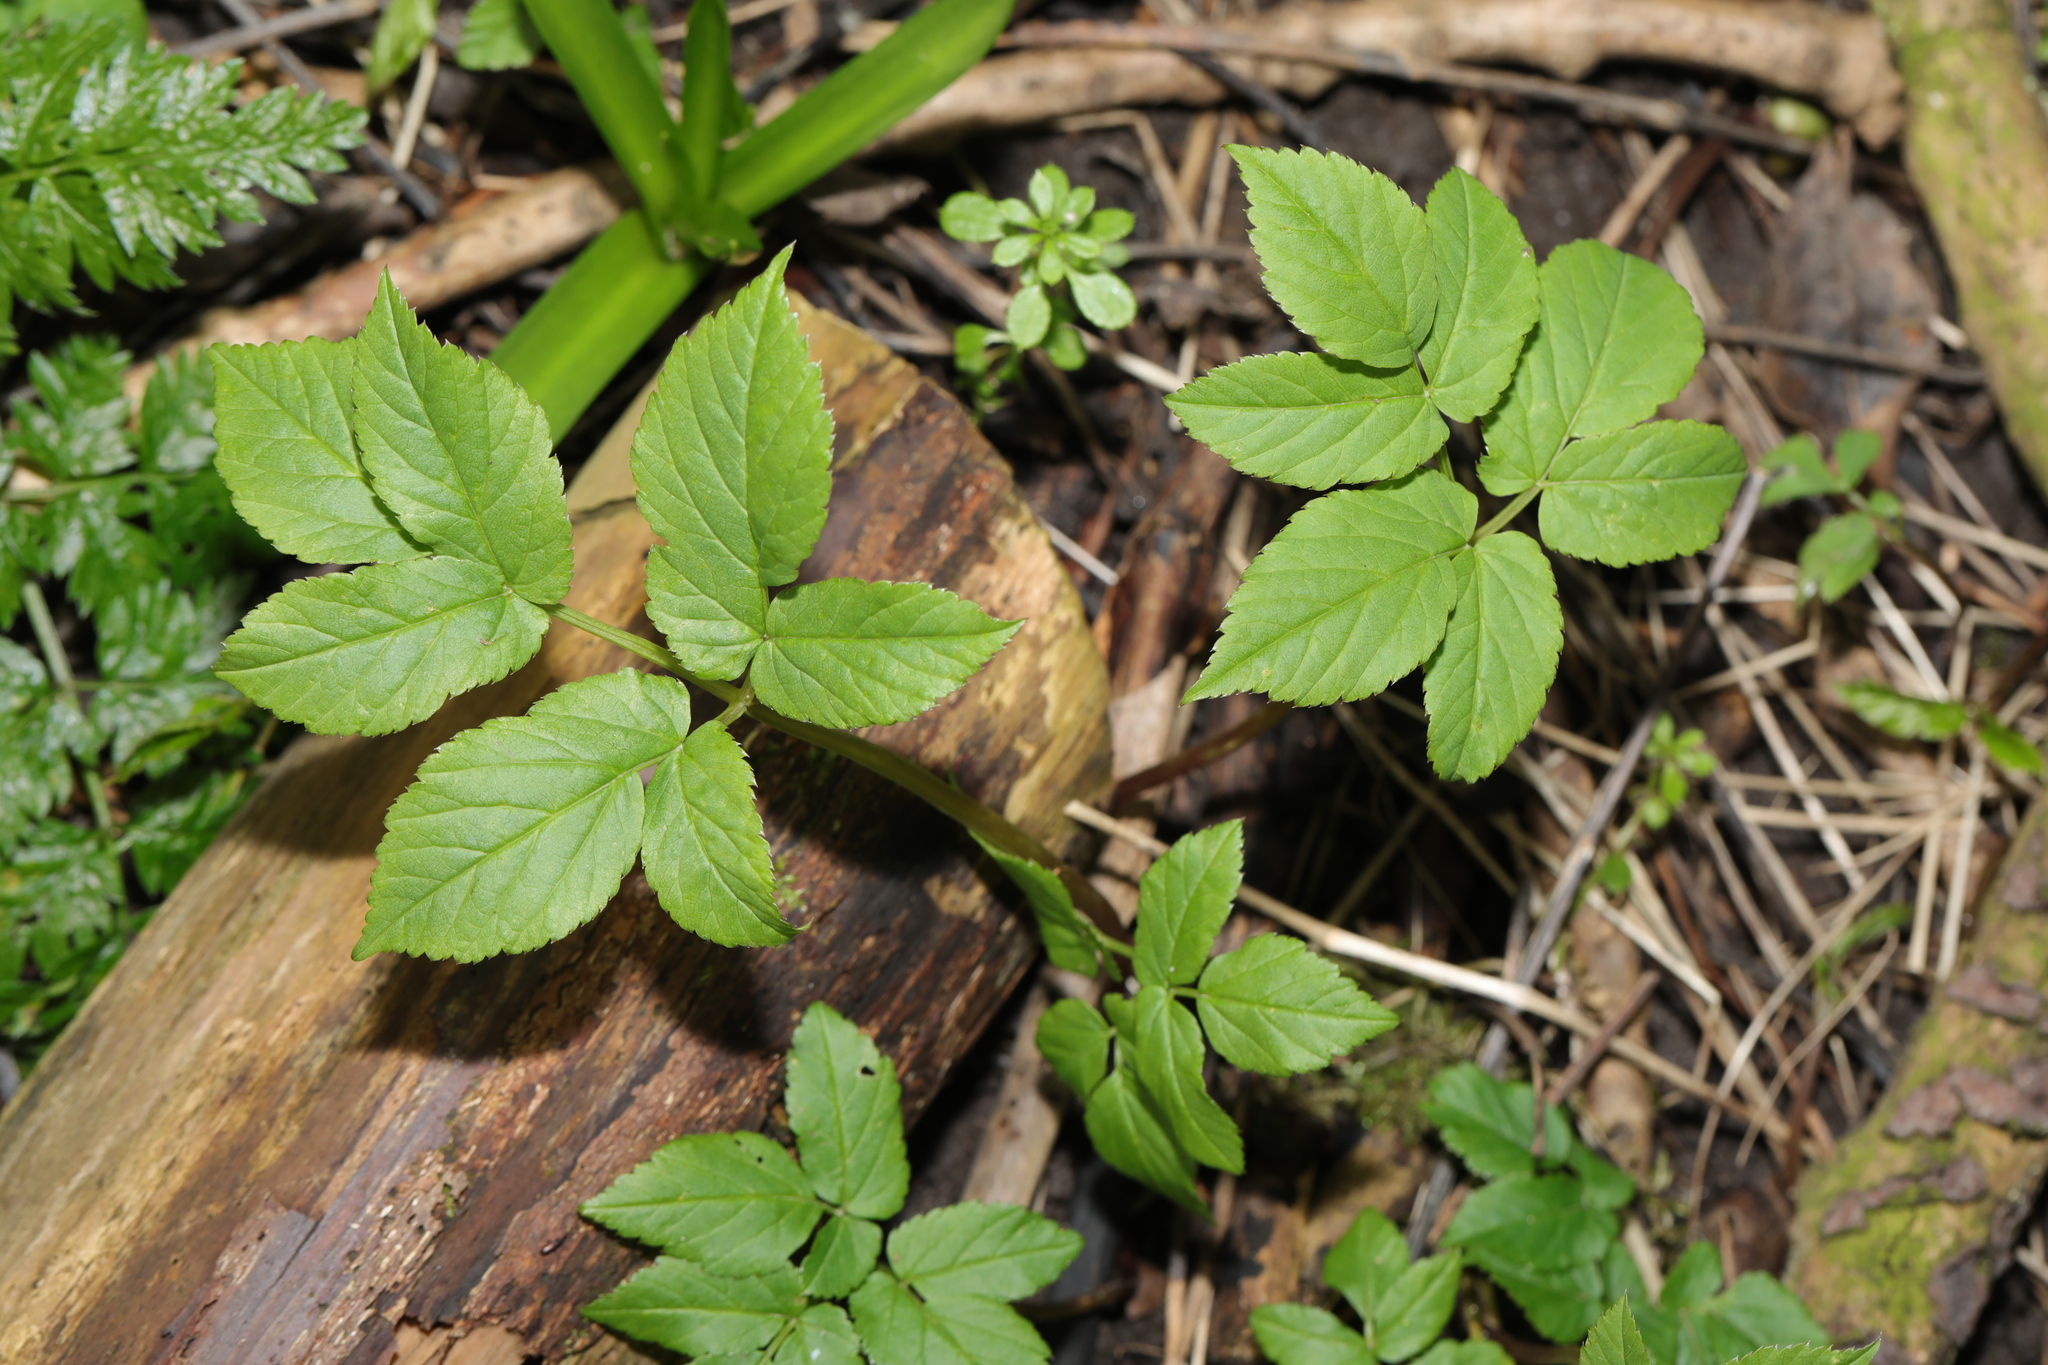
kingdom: Plantae
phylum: Tracheophyta
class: Magnoliopsida
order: Apiales
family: Apiaceae
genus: Aegopodium
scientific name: Aegopodium podagraria
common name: Ground-elder
